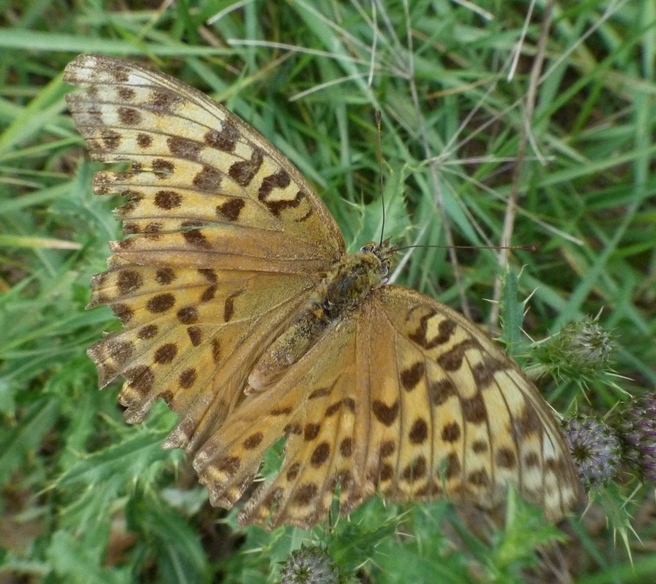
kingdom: Animalia
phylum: Arthropoda
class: Insecta
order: Lepidoptera
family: Nymphalidae
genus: Argynnis
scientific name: Argynnis paphia
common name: Silver-washed fritillary
